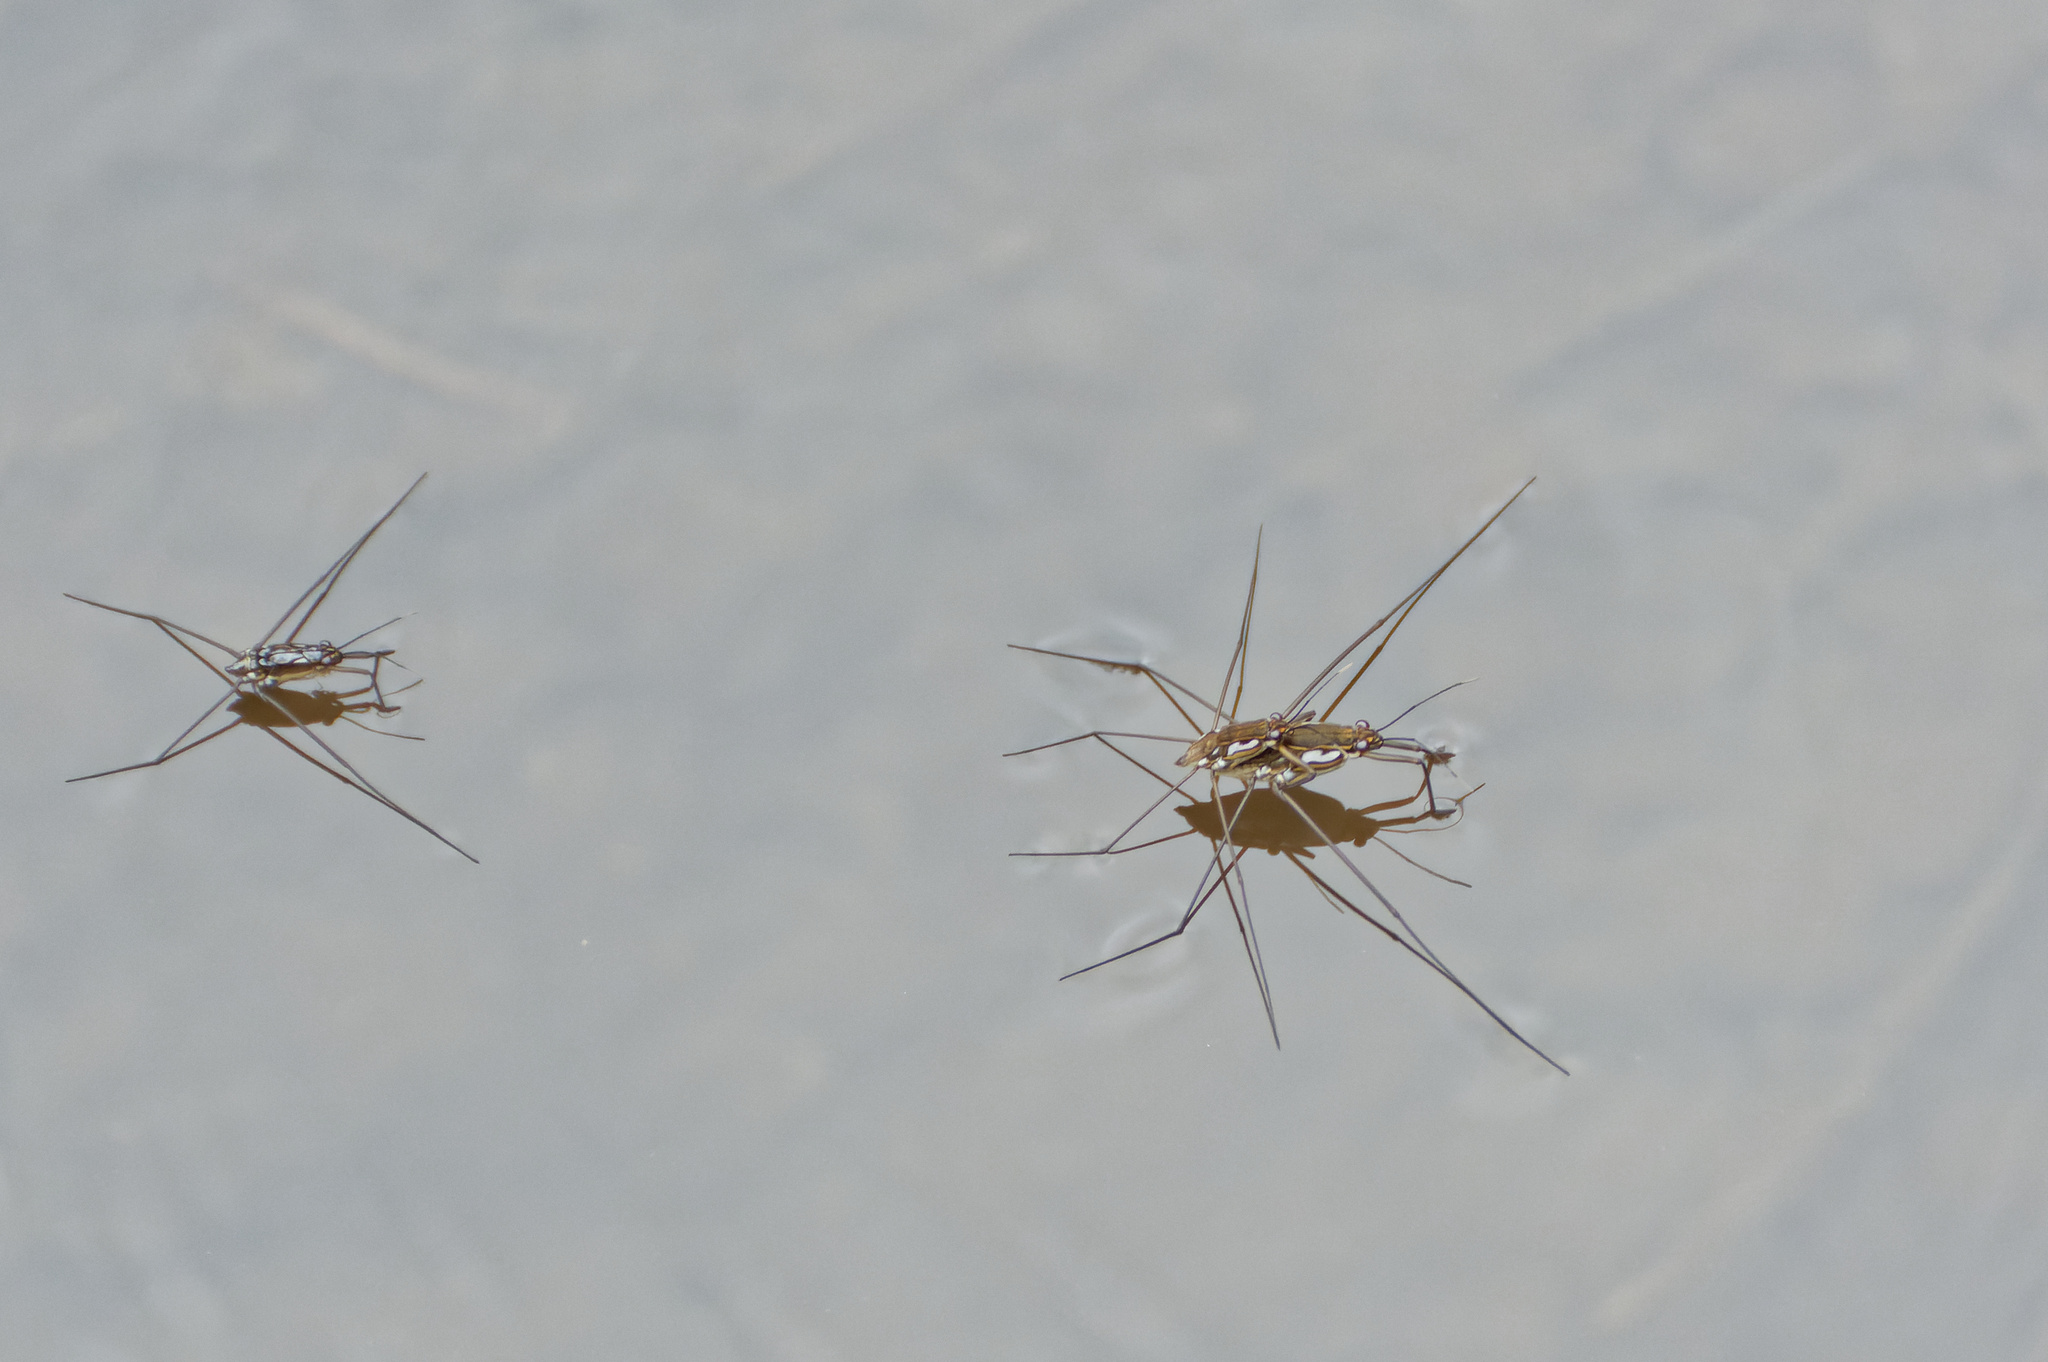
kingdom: Animalia
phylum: Arthropoda
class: Insecta
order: Hemiptera
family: Gerridae
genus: Tenagogerris
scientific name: Tenagogerris euphrosyne
